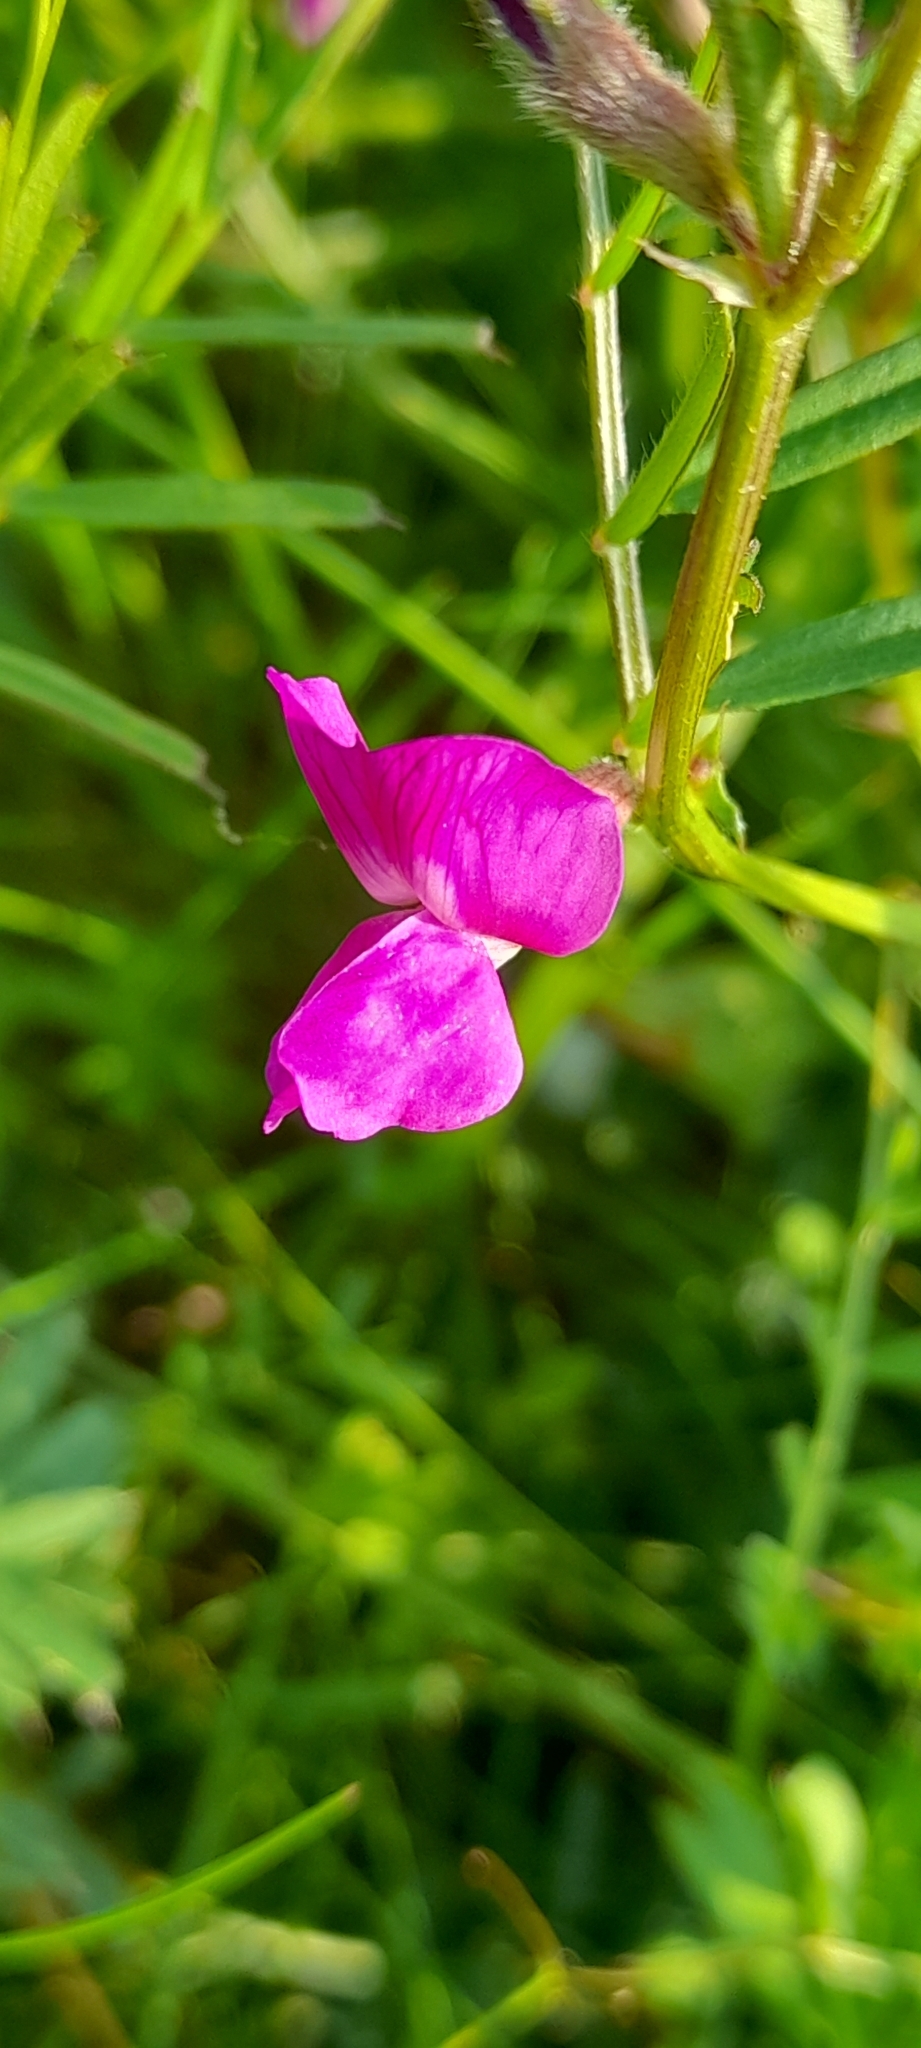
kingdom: Plantae
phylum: Tracheophyta
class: Magnoliopsida
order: Fabales
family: Fabaceae
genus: Vicia
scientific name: Vicia sativa
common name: Garden vetch
